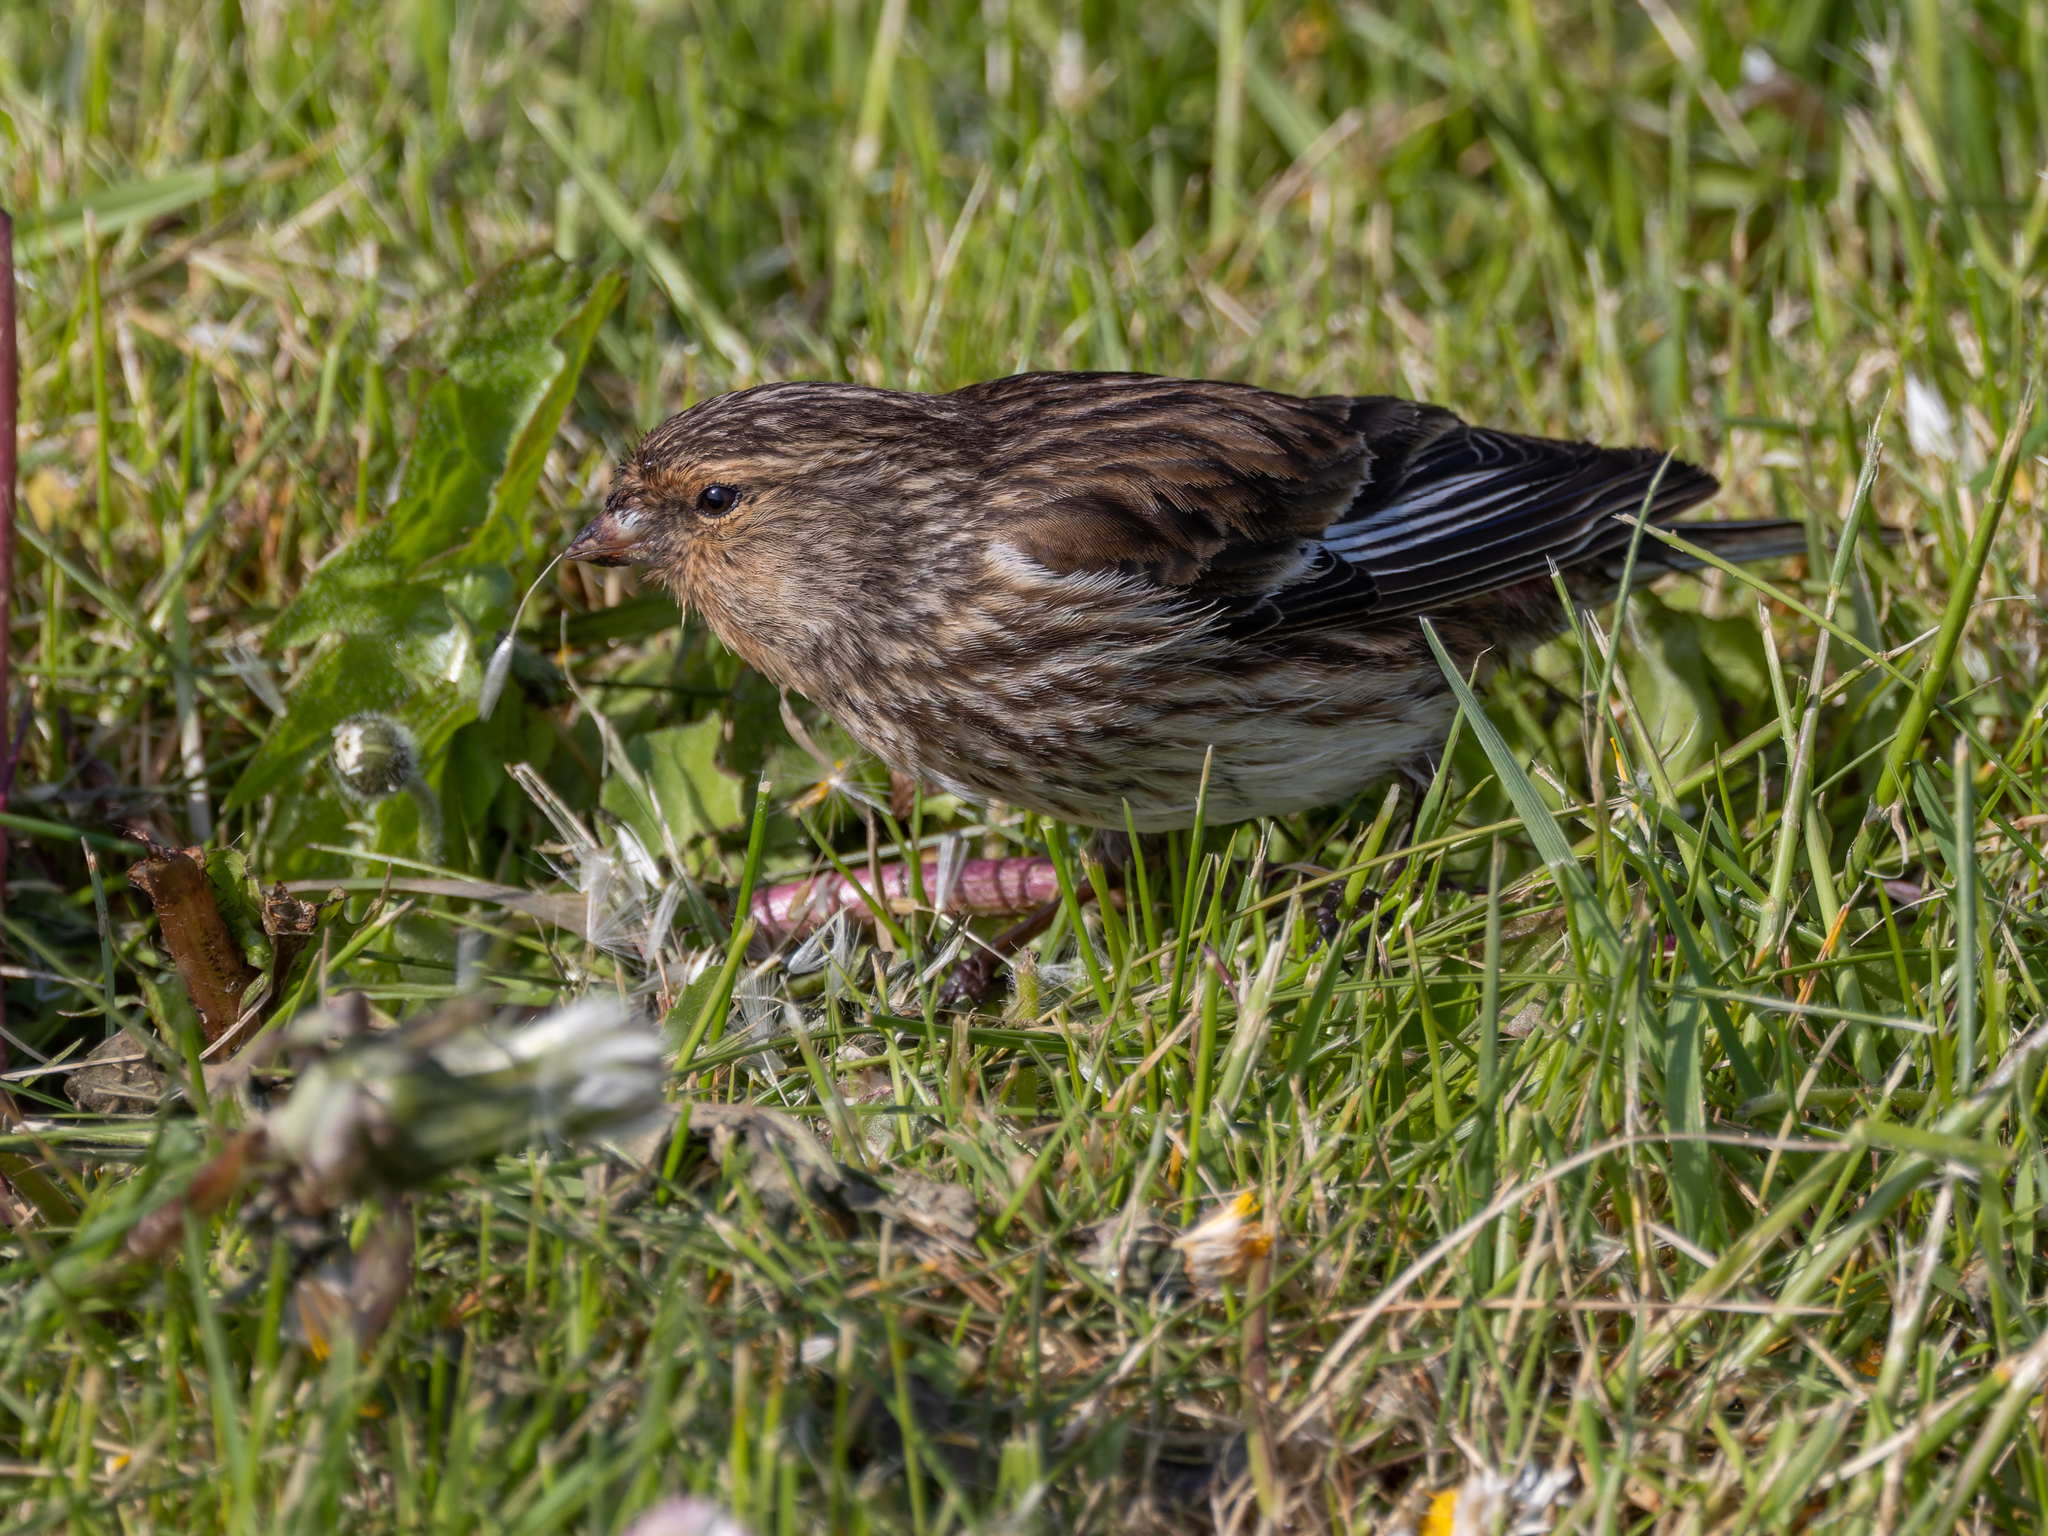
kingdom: Animalia
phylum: Chordata
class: Aves
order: Passeriformes
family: Fringillidae
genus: Linaria
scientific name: Linaria flavirostris
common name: Twite
